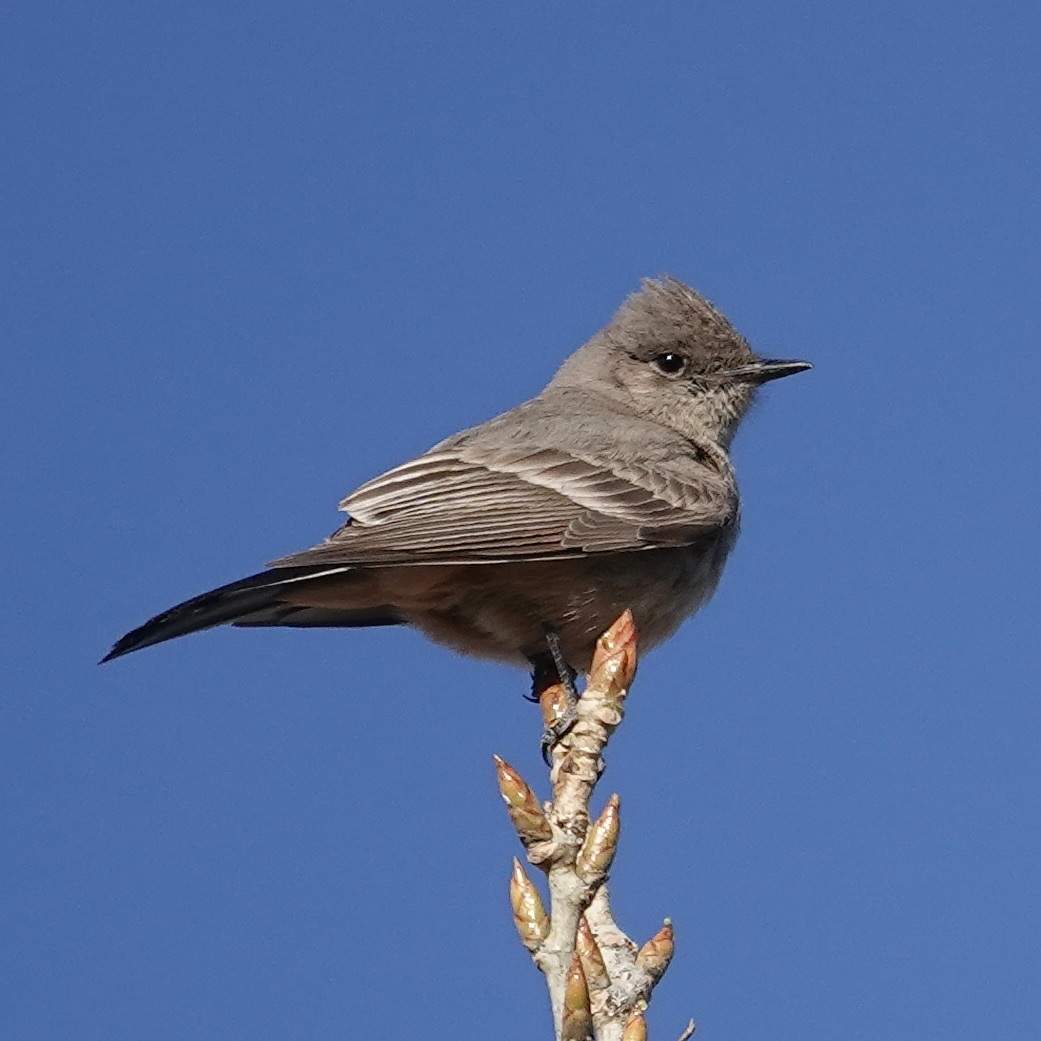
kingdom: Animalia
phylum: Chordata
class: Aves
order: Passeriformes
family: Tyrannidae
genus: Sayornis
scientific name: Sayornis saya
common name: Say's phoebe
